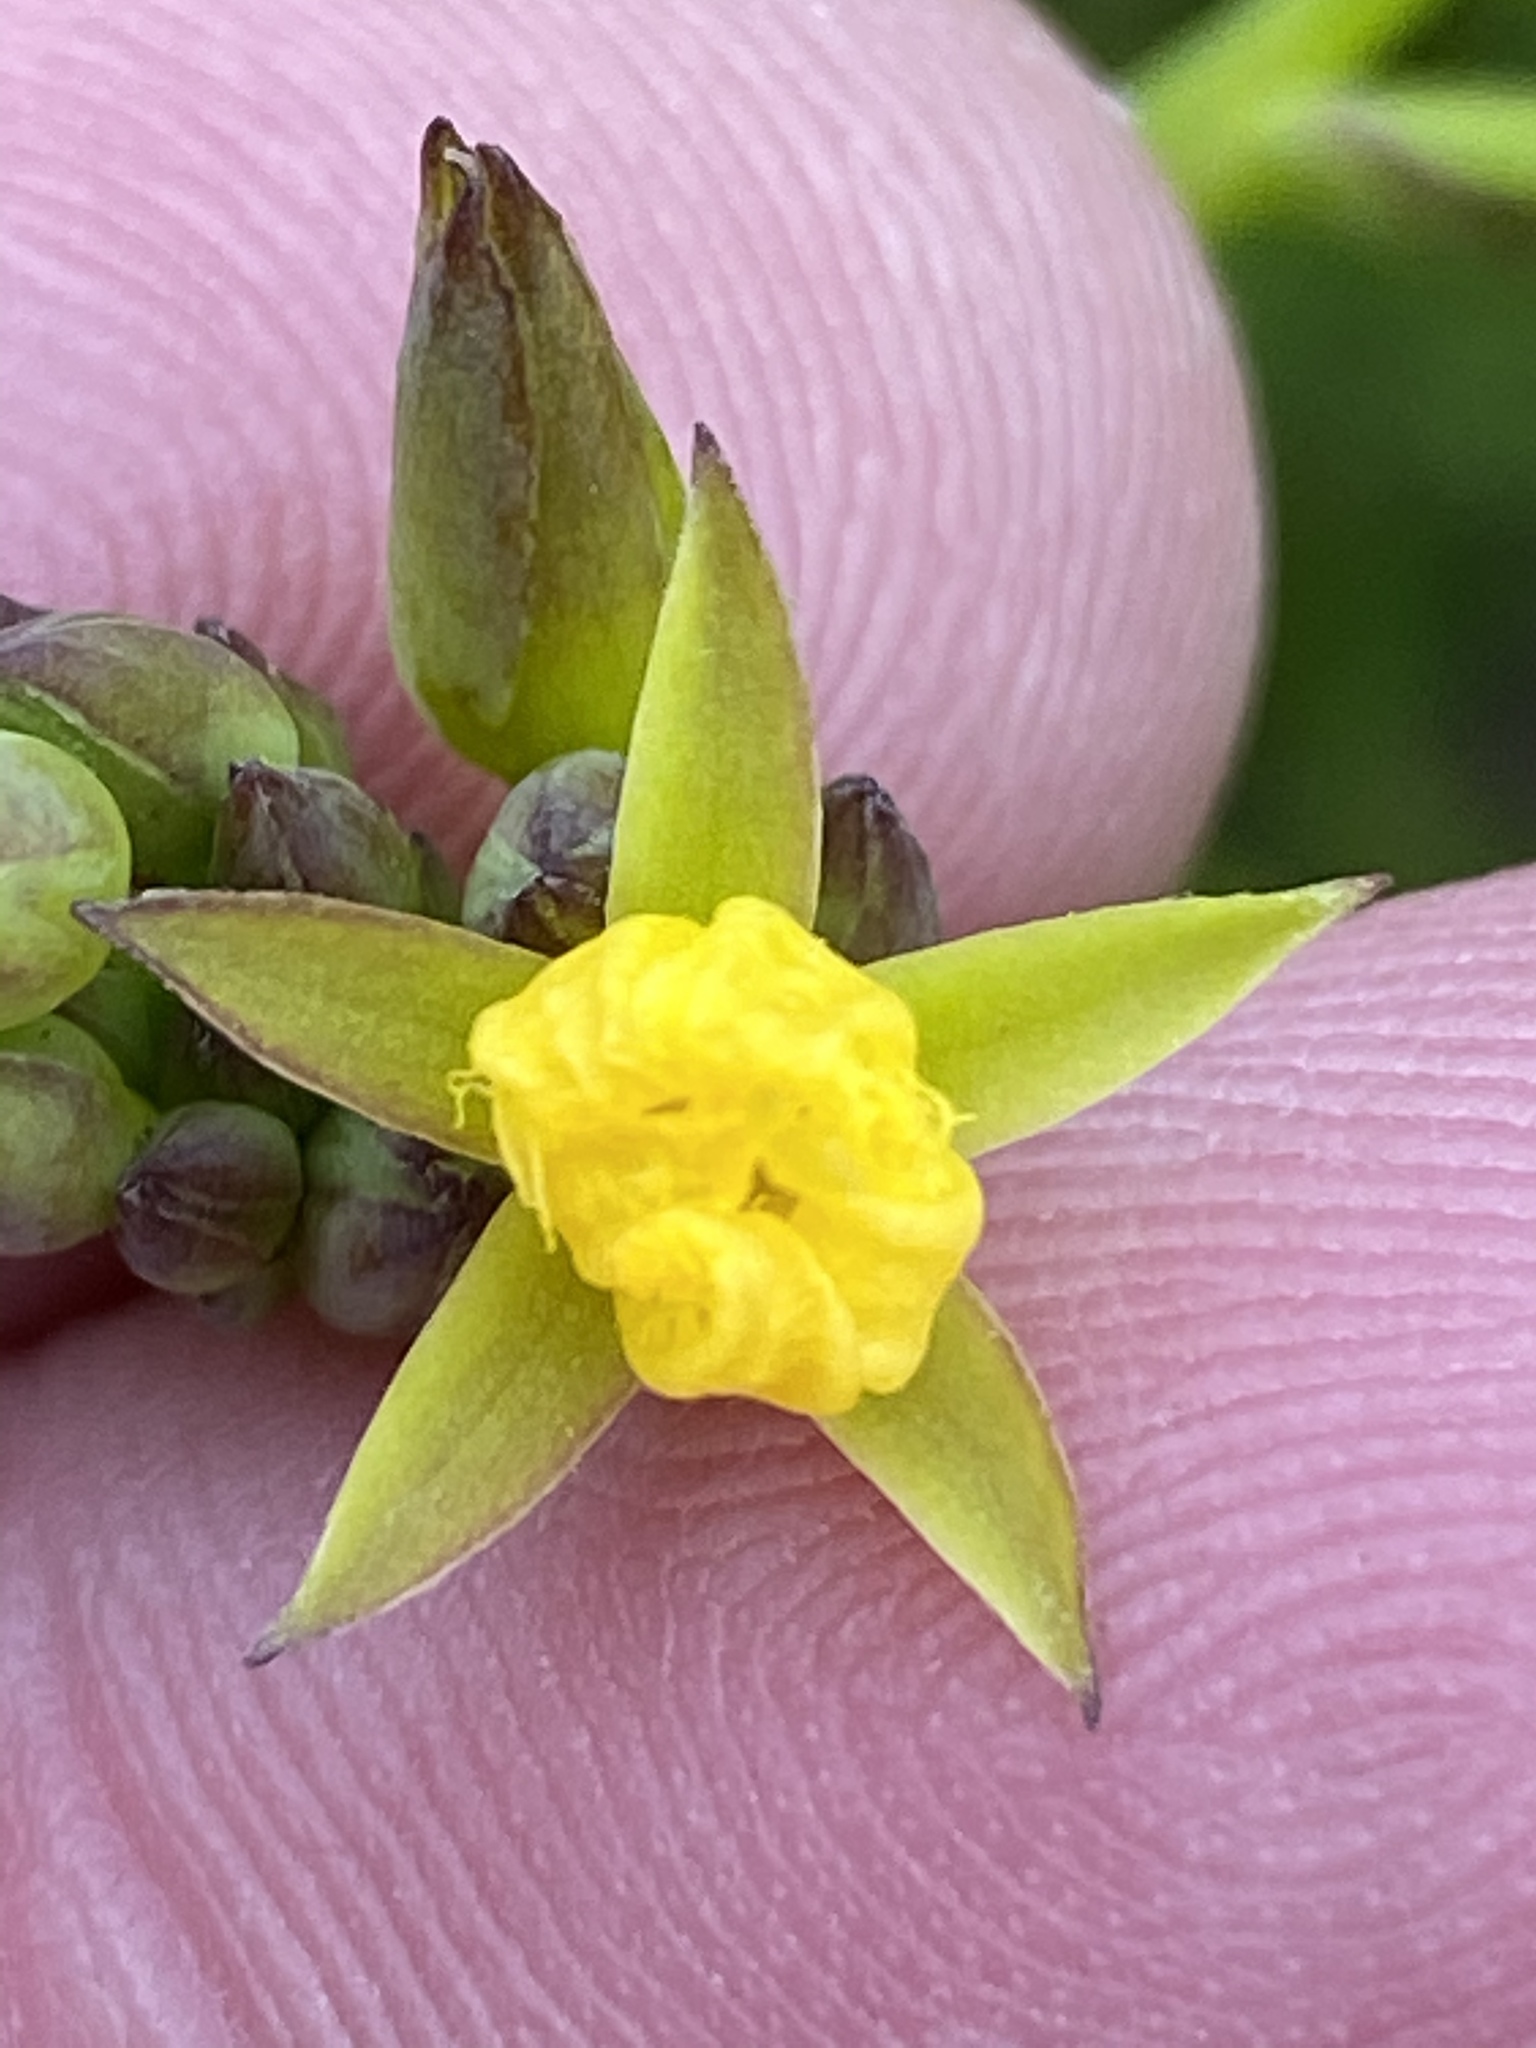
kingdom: Plantae
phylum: Tracheophyta
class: Magnoliopsida
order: Asterales
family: Menyanthaceae
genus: Villarsia
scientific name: Villarsia capensis
